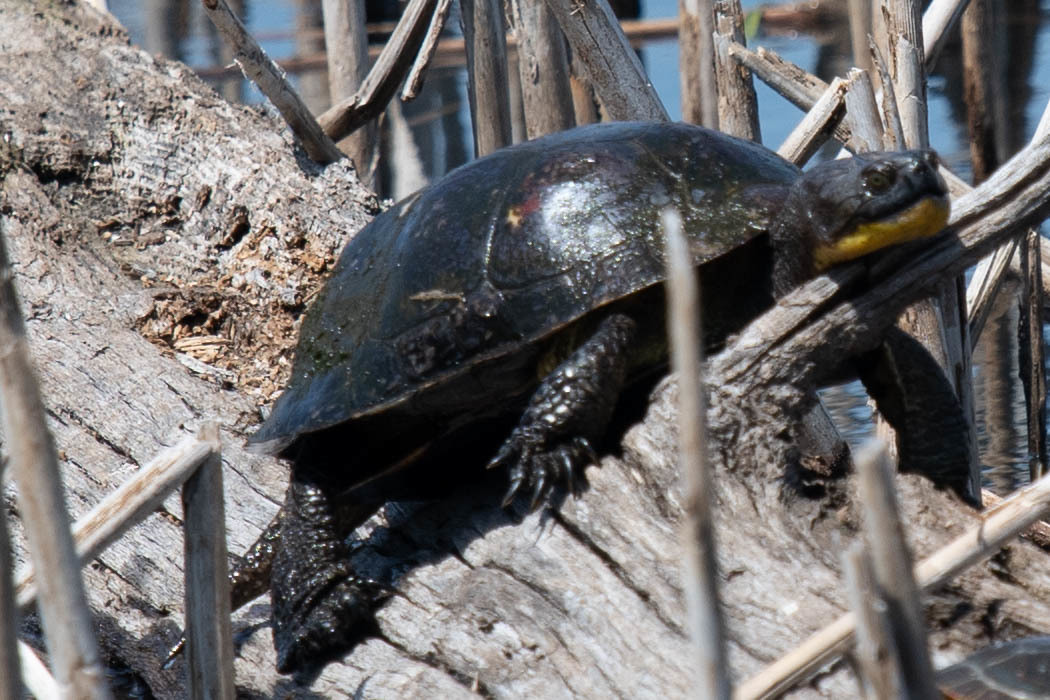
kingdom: Animalia
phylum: Chordata
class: Testudines
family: Emydidae
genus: Emys
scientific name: Emys blandingii
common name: Blanding's turtle
